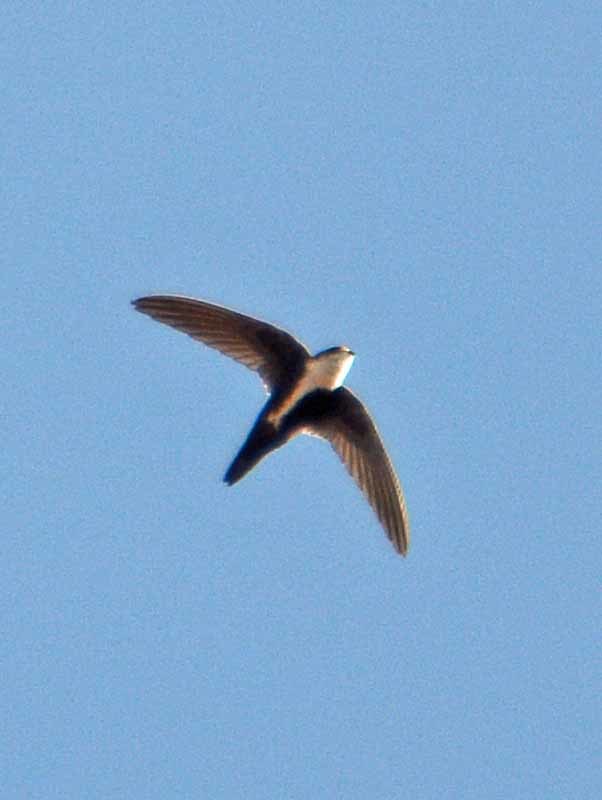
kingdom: Animalia
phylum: Chordata
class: Aves
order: Apodiformes
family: Apodidae
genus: Aeronautes
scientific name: Aeronautes saxatalis
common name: White-throated swift
